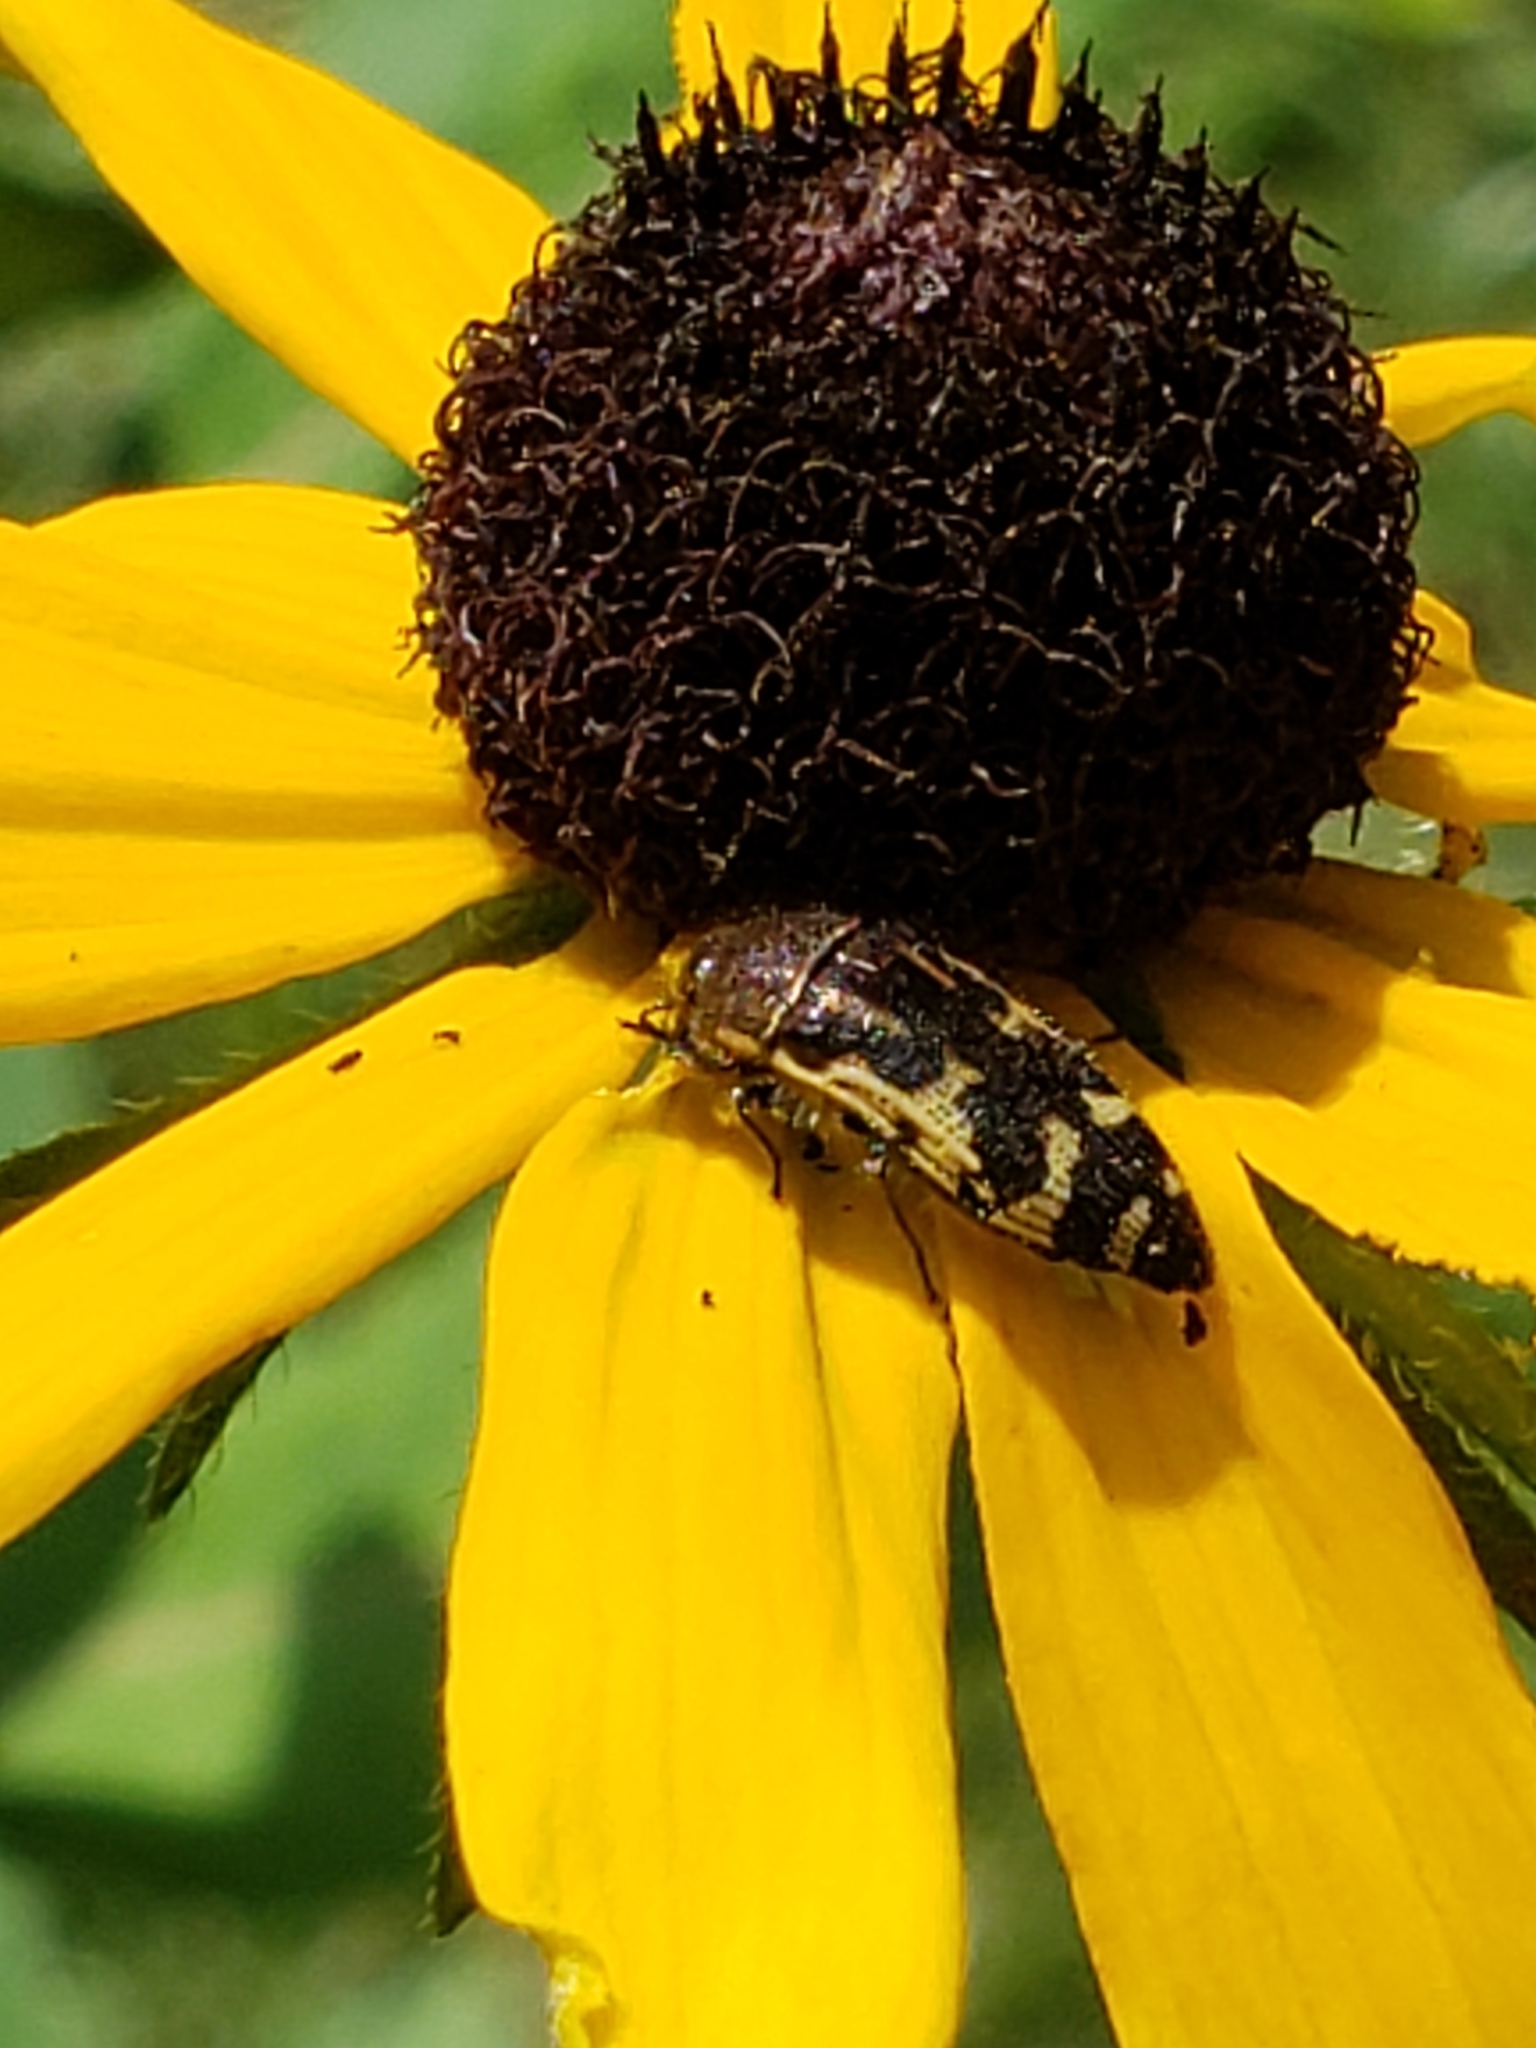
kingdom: Animalia
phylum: Arthropoda
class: Insecta
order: Coleoptera
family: Buprestidae
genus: Acmaeodera
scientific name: Acmaeodera pulchella
